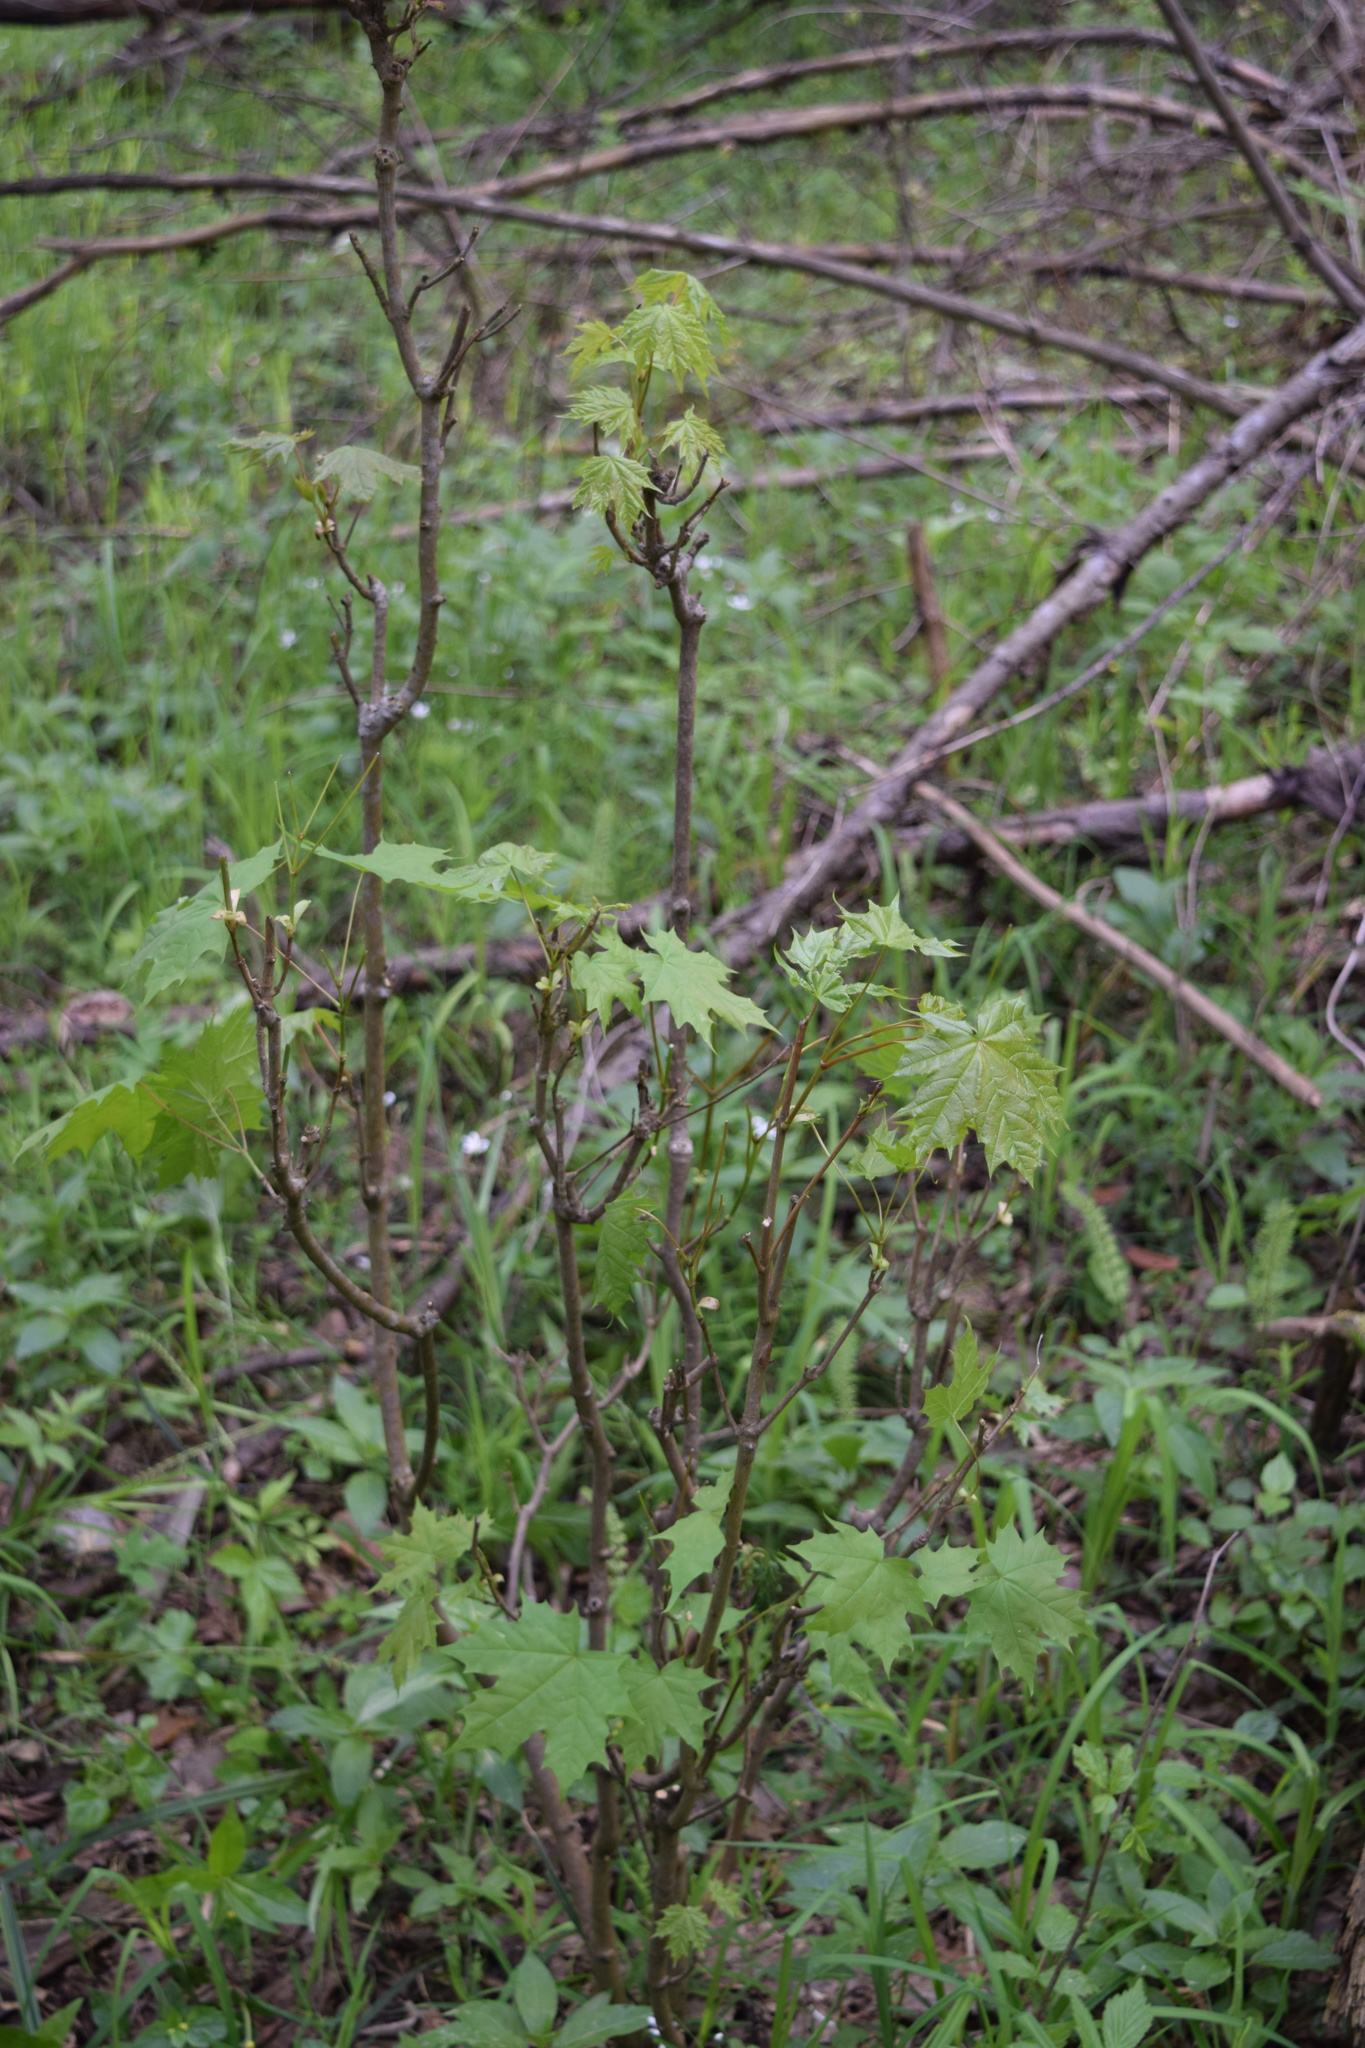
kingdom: Plantae
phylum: Tracheophyta
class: Magnoliopsida
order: Sapindales
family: Sapindaceae
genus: Acer
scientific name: Acer platanoides
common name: Norway maple
